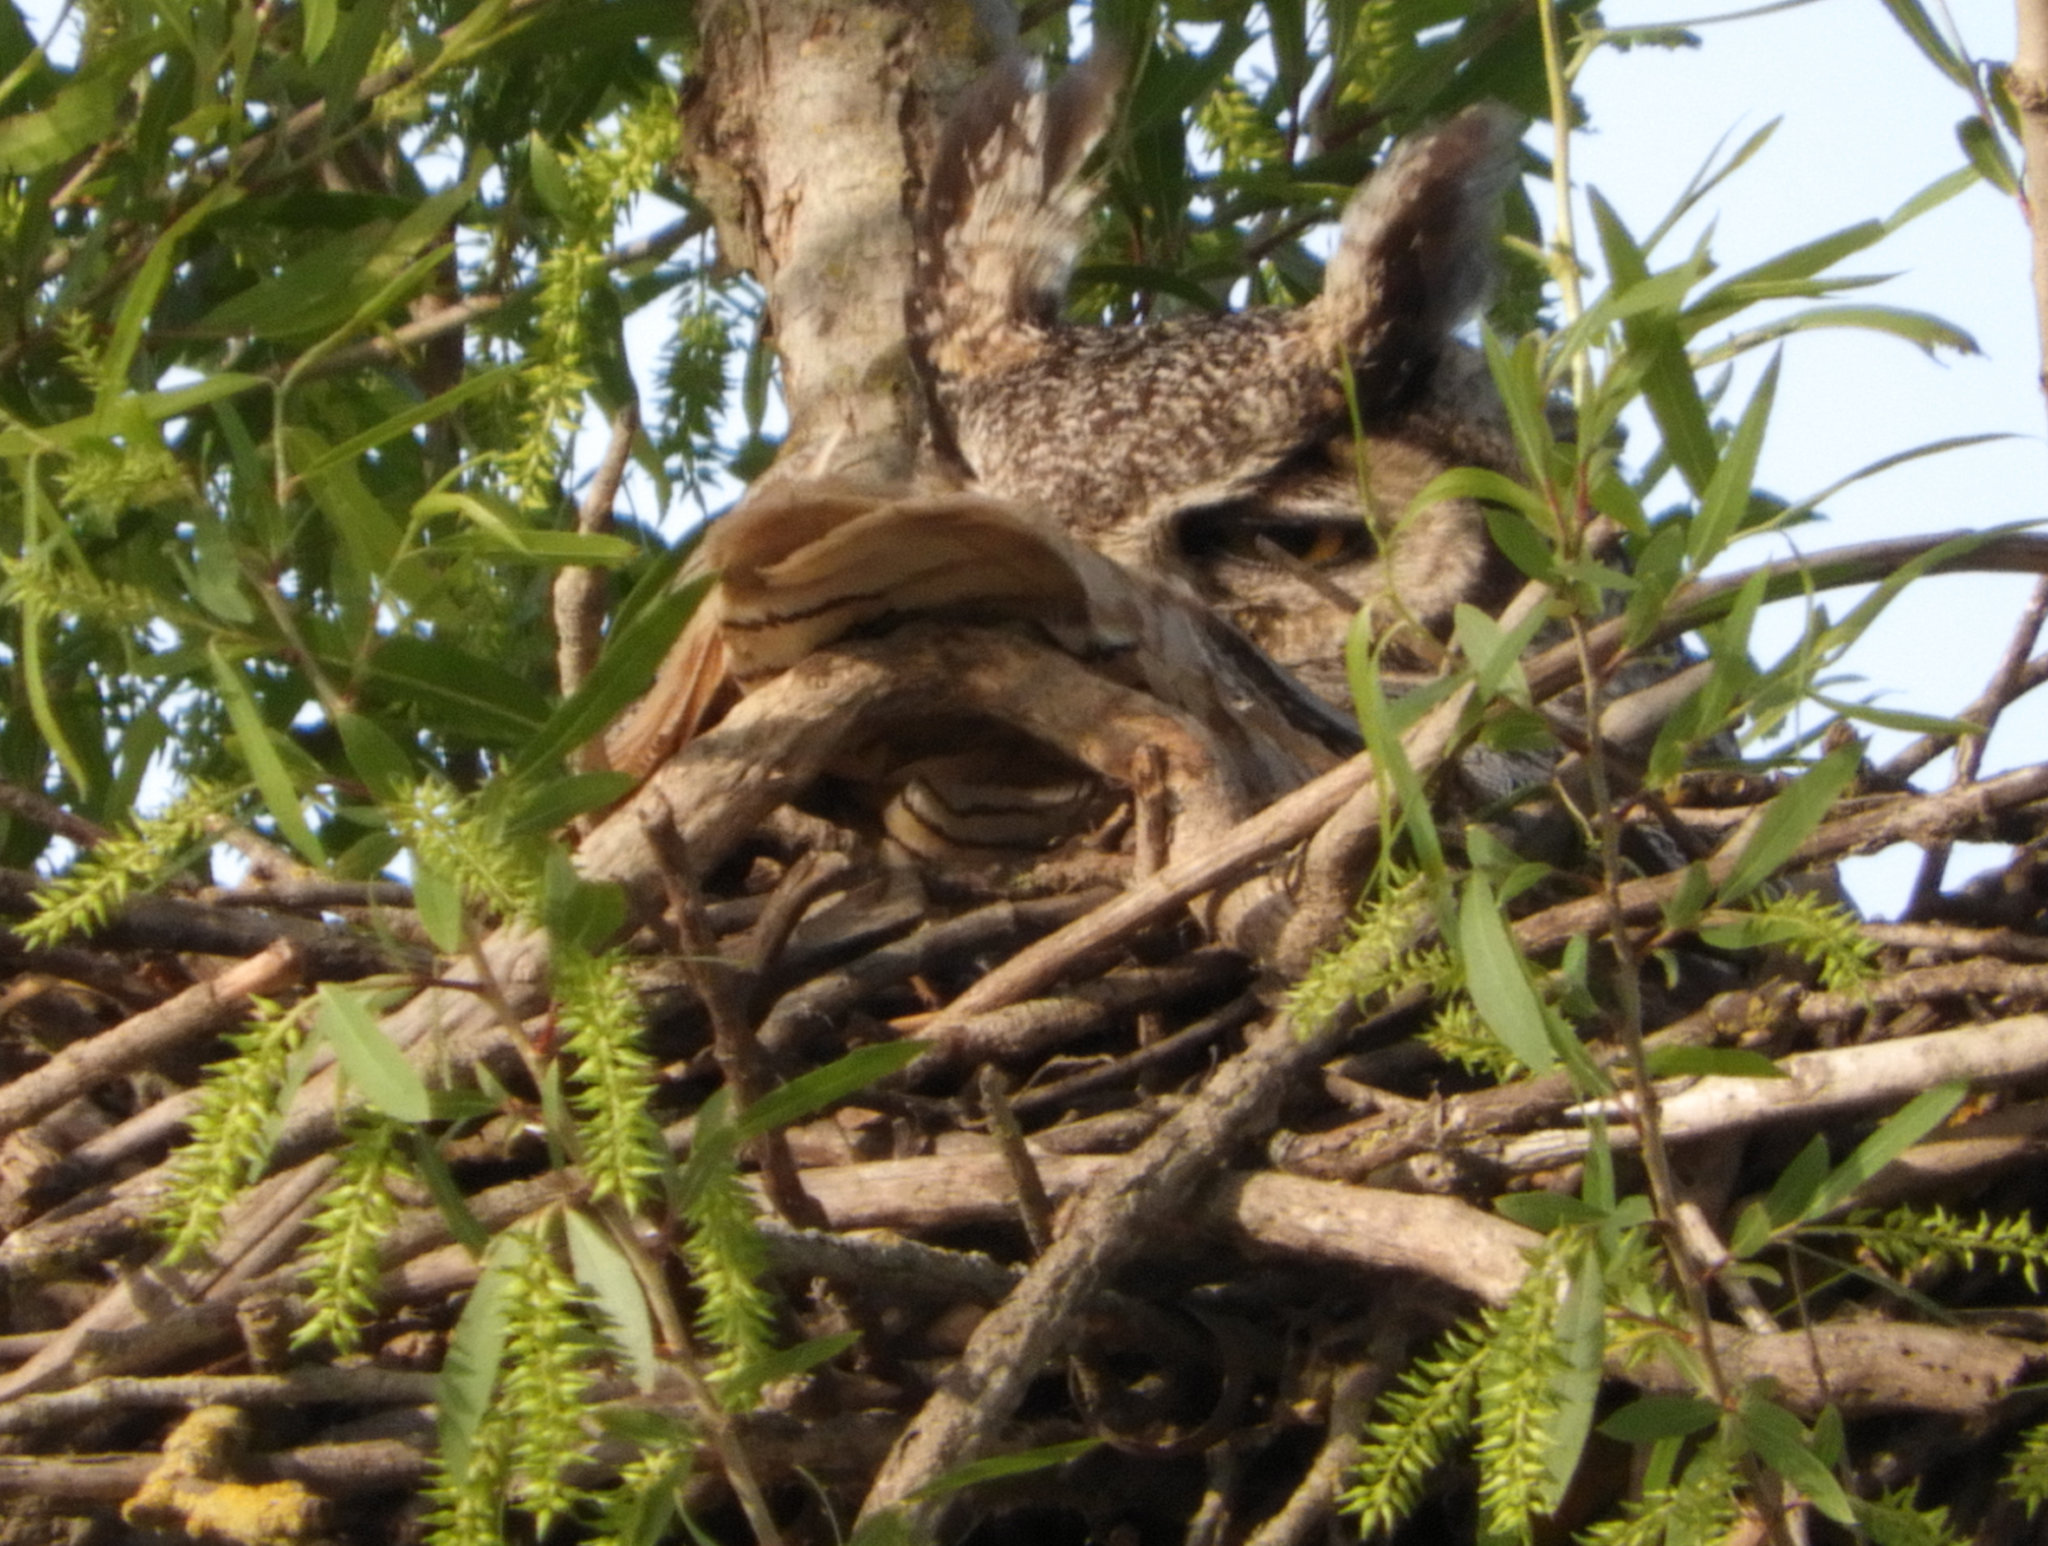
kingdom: Animalia
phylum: Chordata
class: Aves
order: Strigiformes
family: Strigidae
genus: Bubo
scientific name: Bubo virginianus
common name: Great horned owl
